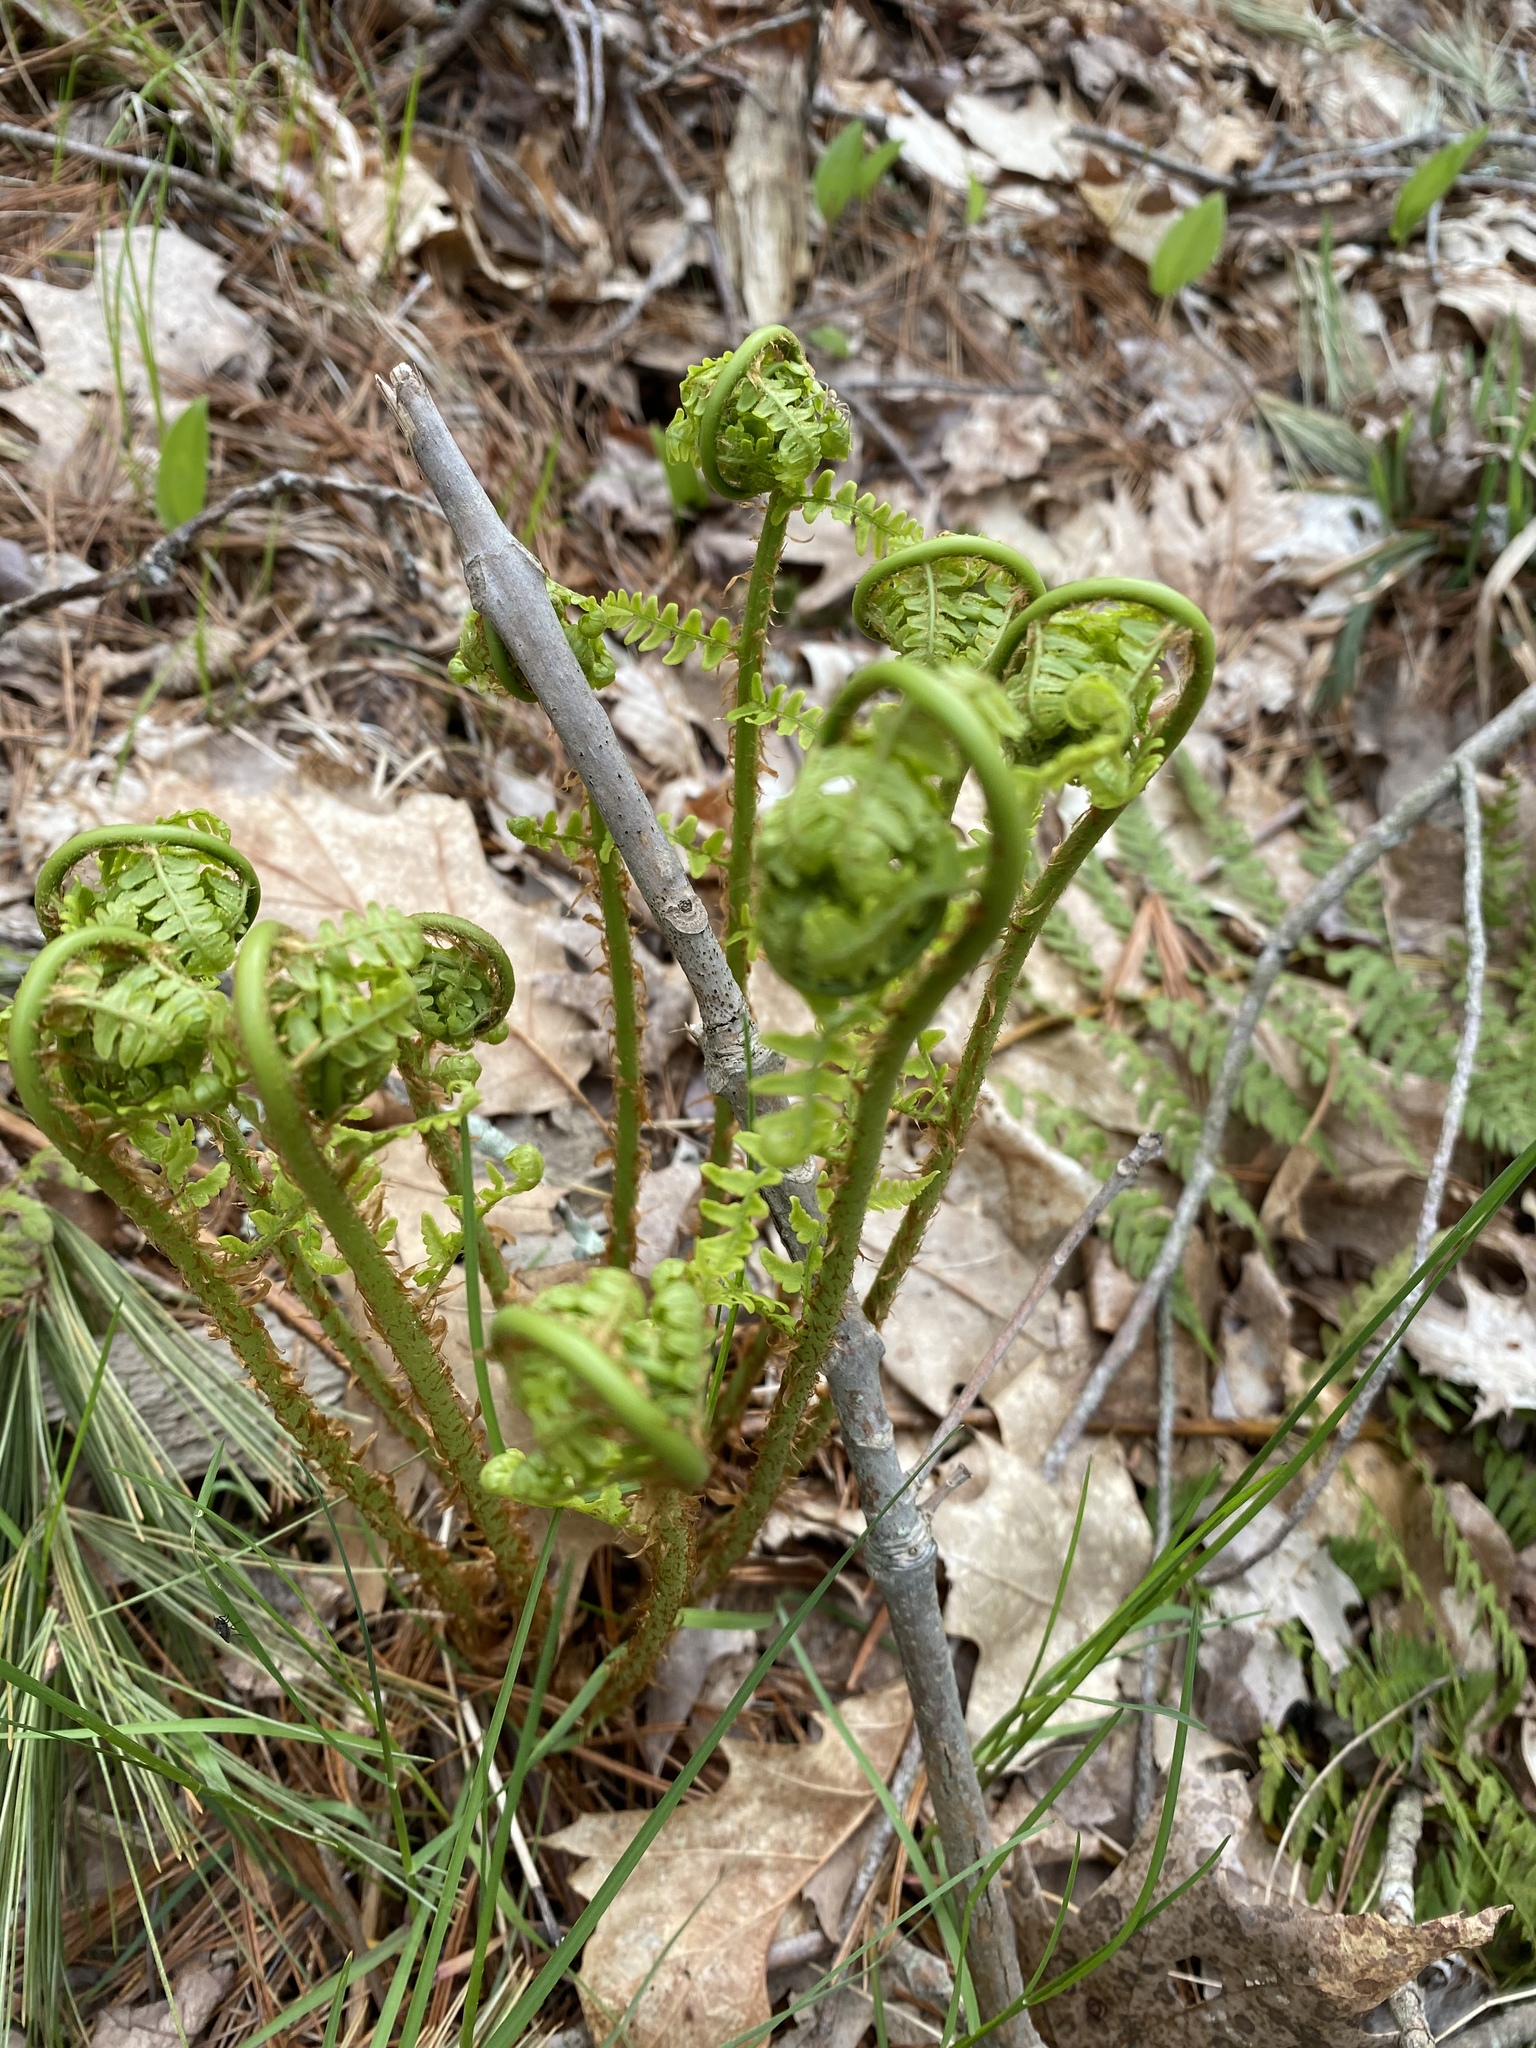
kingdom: Plantae
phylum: Tracheophyta
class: Polypodiopsida
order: Polypodiales
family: Dryopteridaceae
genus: Dryopteris
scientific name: Dryopteris marginalis
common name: Marginal wood fern
